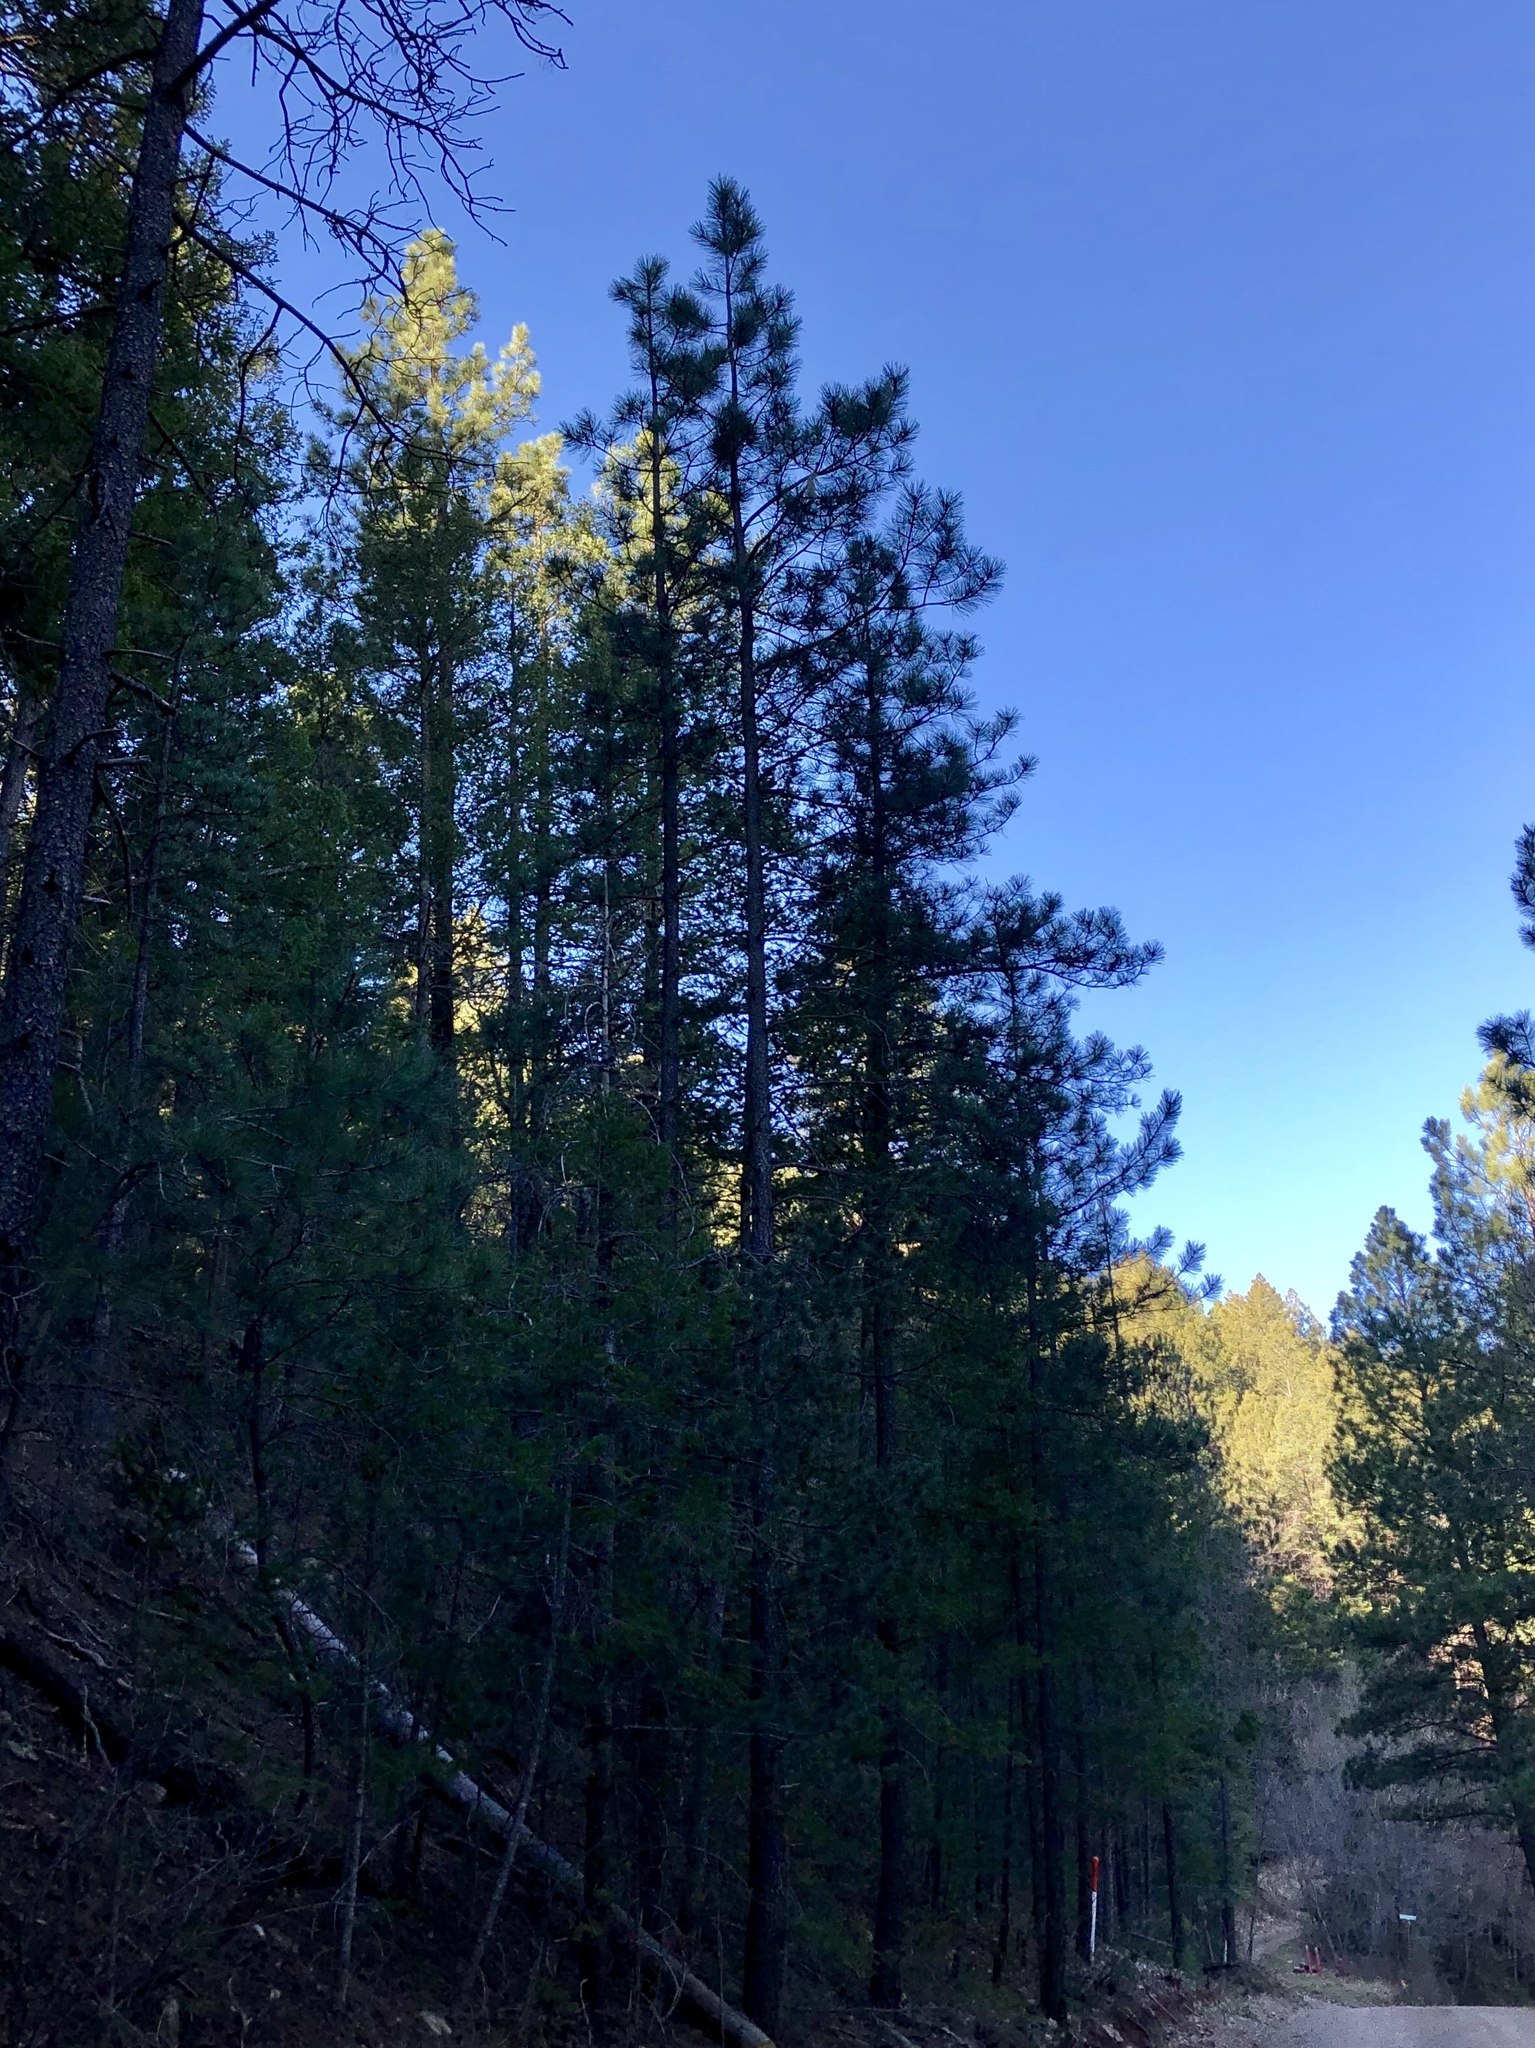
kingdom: Plantae
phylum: Tracheophyta
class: Pinopsida
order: Pinales
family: Pinaceae
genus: Pinus
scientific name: Pinus ponderosa
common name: Western yellow-pine
